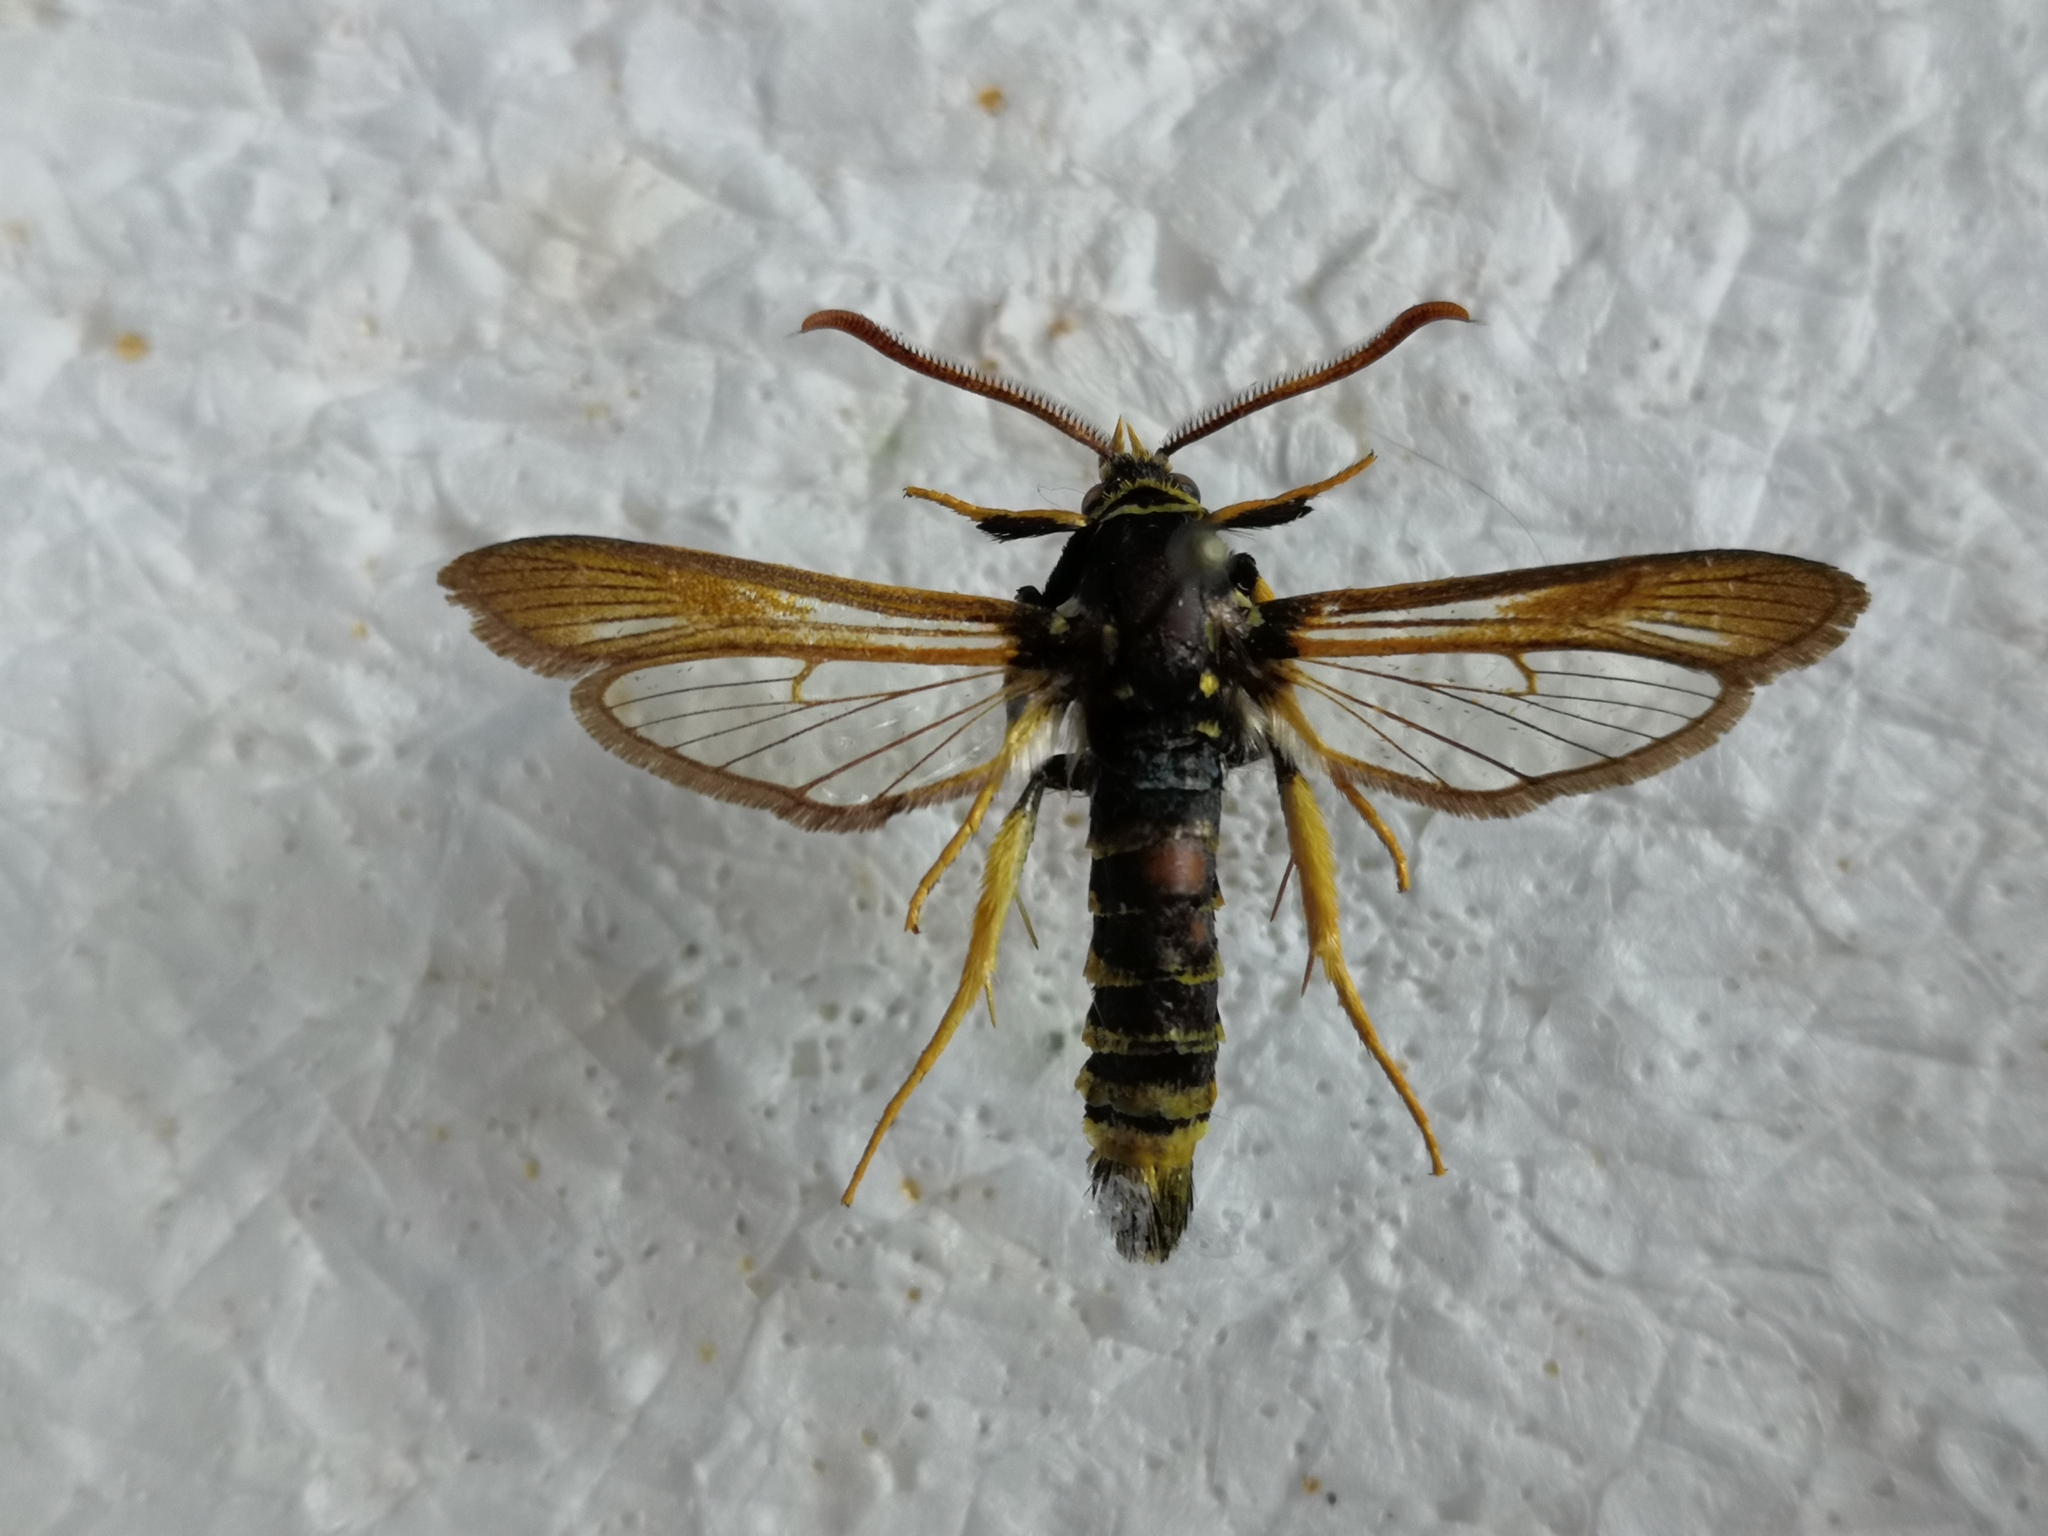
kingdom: Animalia
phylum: Arthropoda
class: Insecta
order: Lepidoptera
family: Sesiidae
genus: Paranthrene
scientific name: Paranthrene diaphana
